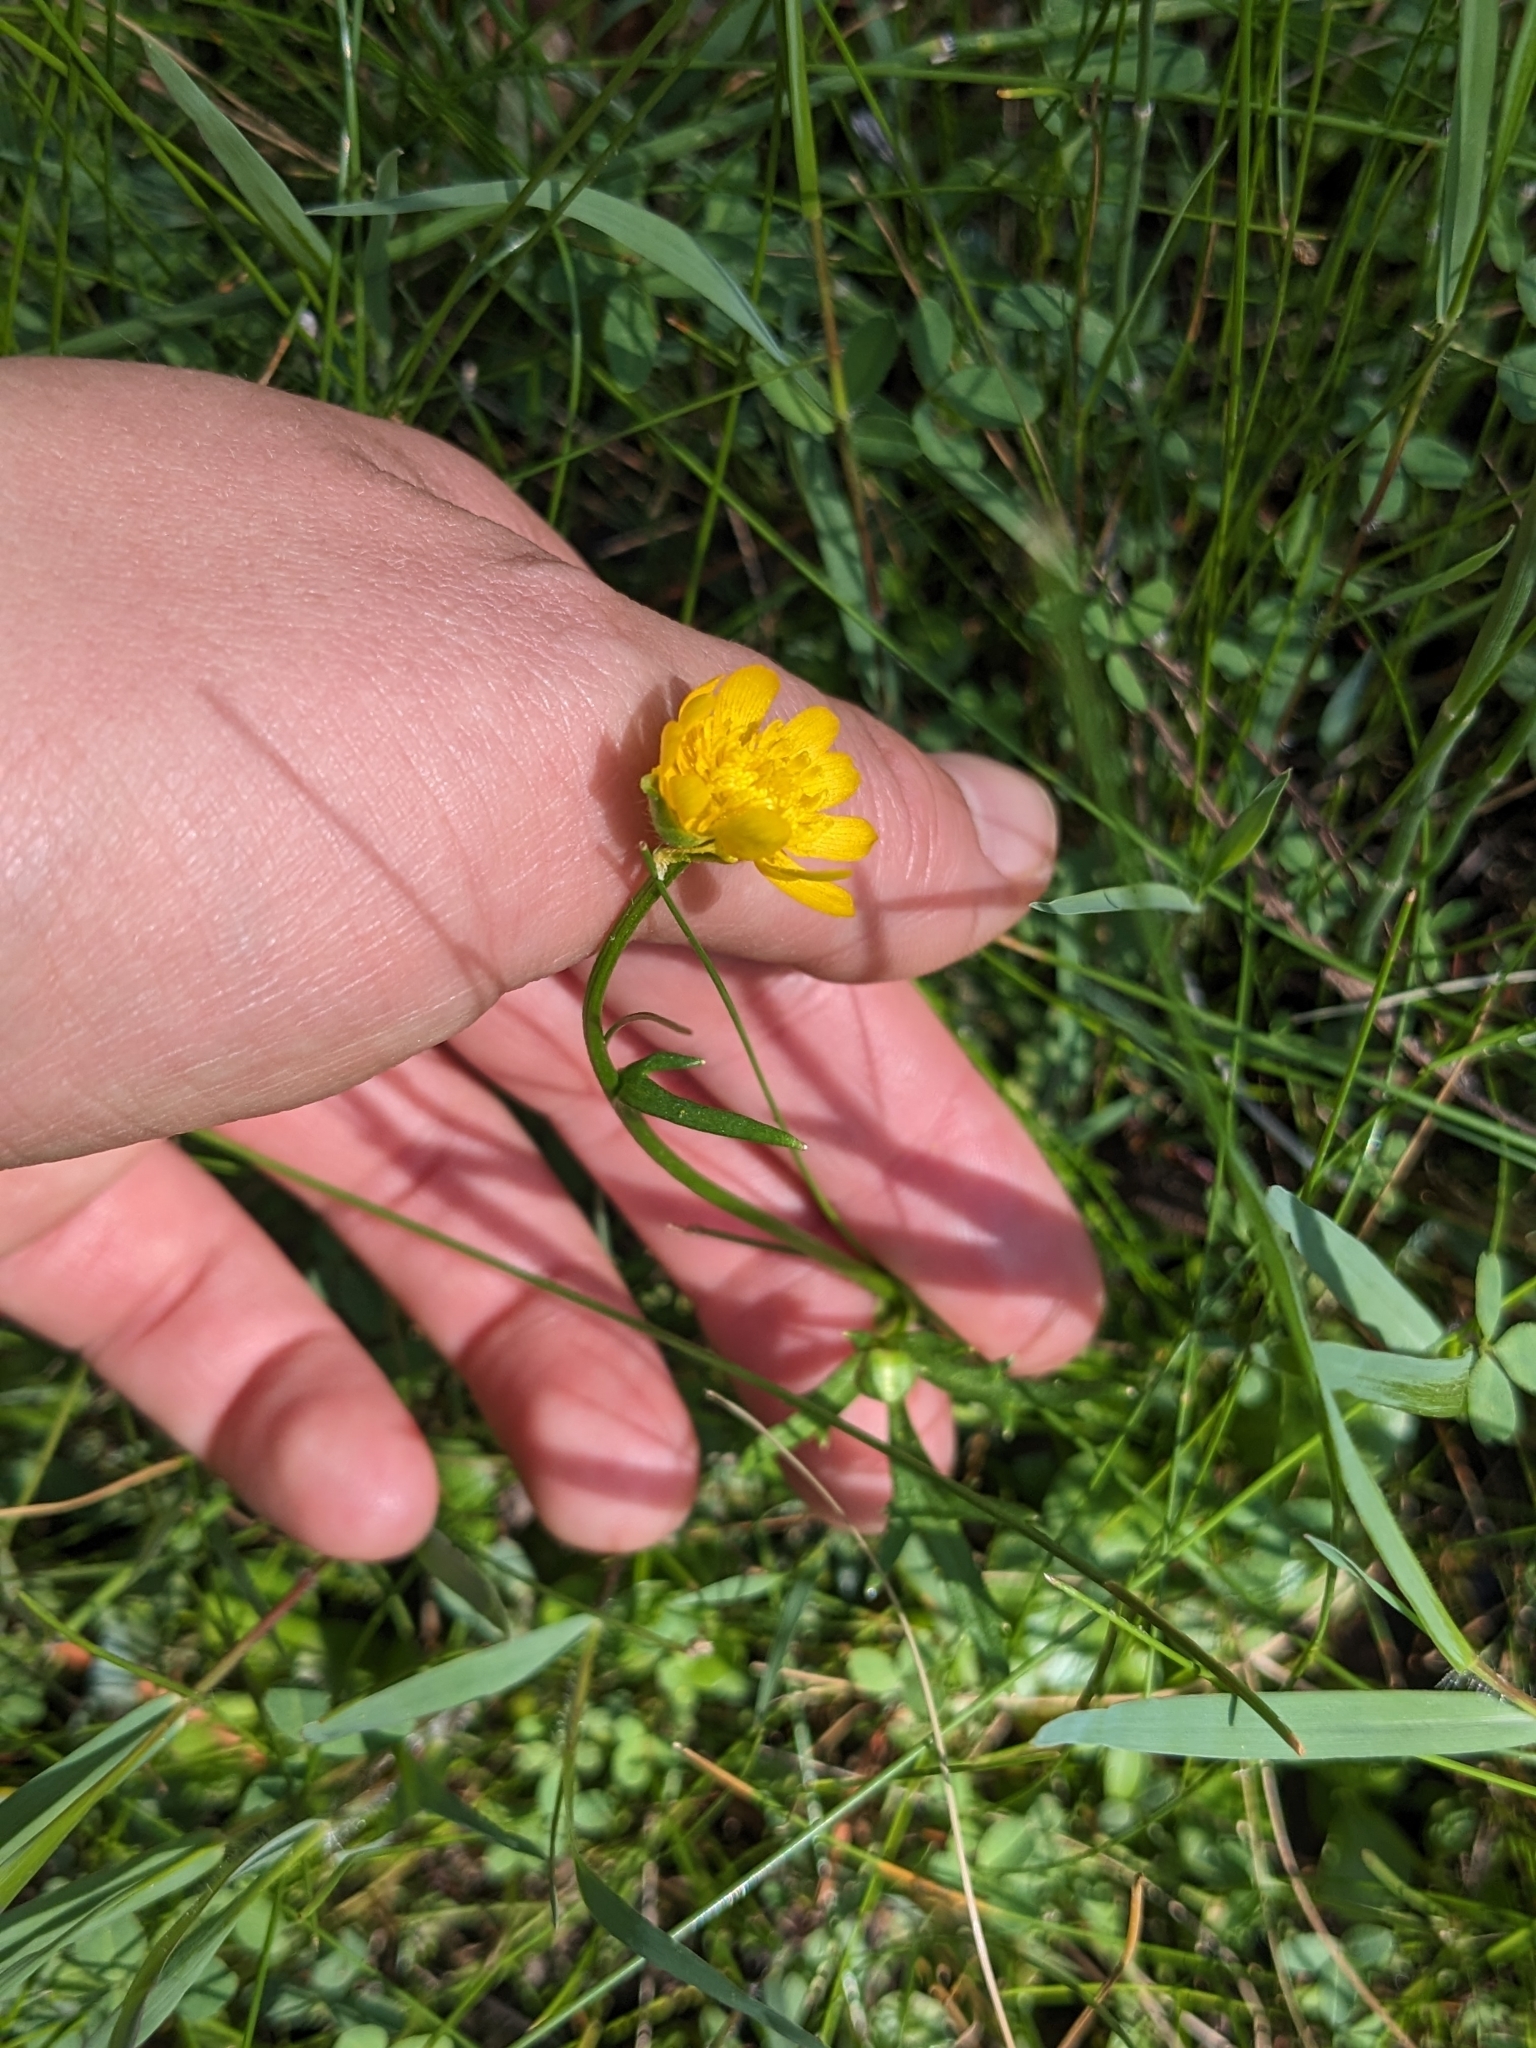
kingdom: Plantae
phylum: Tracheophyta
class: Magnoliopsida
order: Ranunculales
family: Ranunculaceae
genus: Ranunculus
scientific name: Ranunculus macranthus
